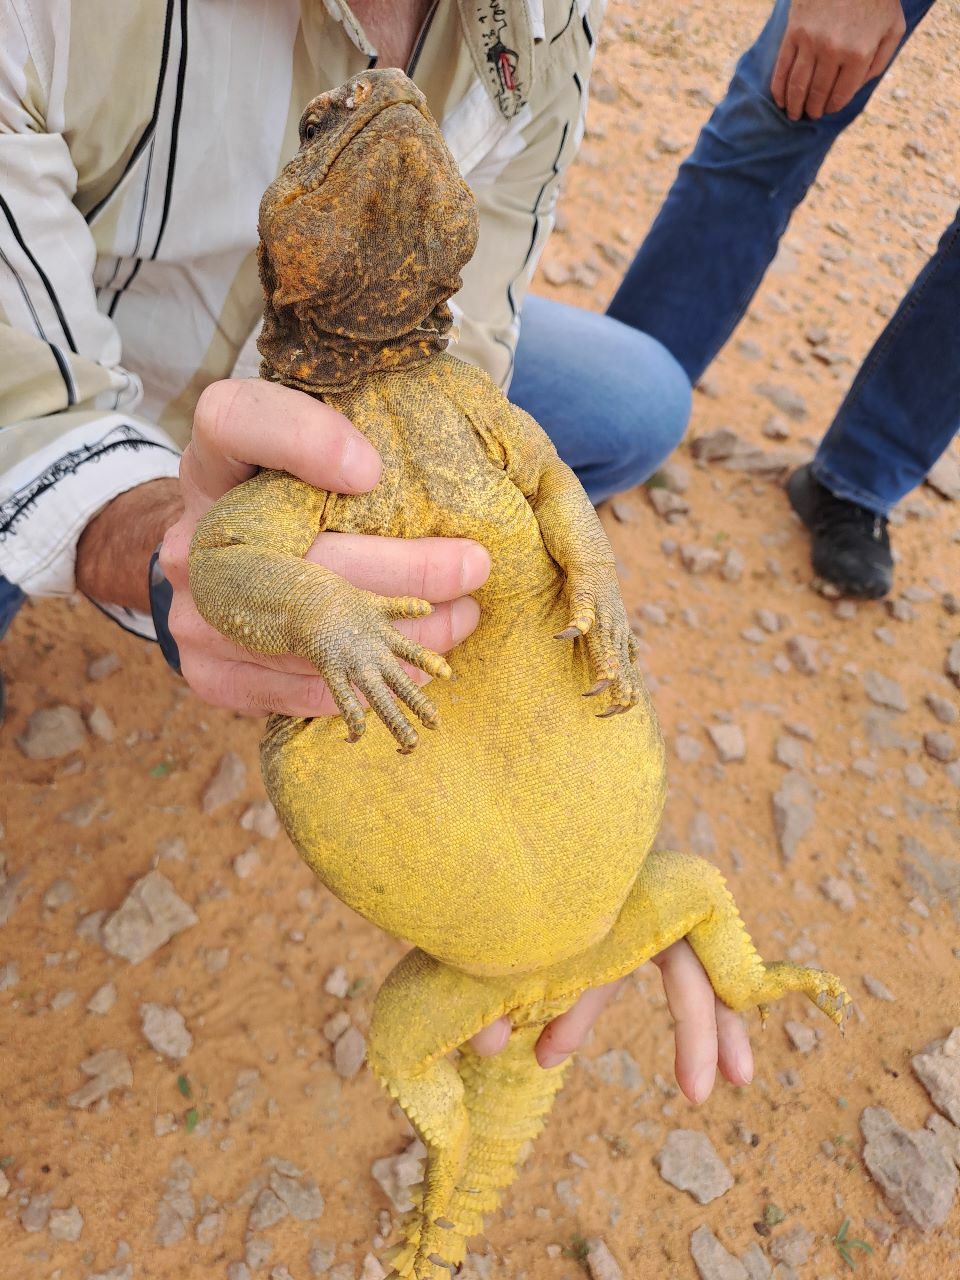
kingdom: Animalia
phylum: Chordata
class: Squamata
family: Agamidae
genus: Uromastyx
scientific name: Uromastyx aegyptia
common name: Egyptian mastigure
